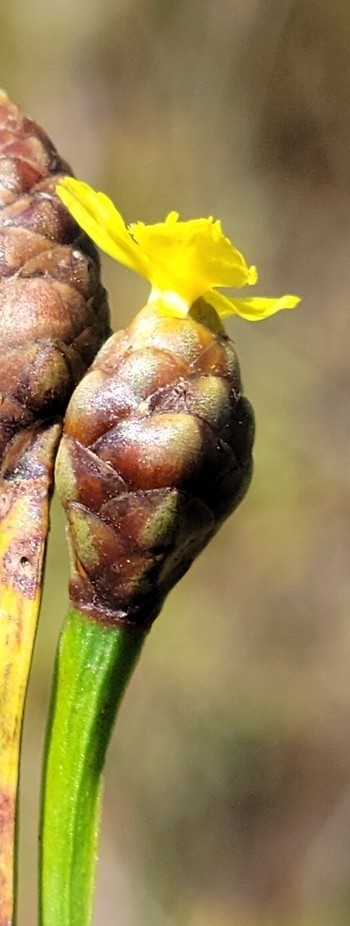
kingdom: Plantae
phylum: Tracheophyta
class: Liliopsida
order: Poales
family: Xyridaceae
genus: Xyris
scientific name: Xyris serotina
